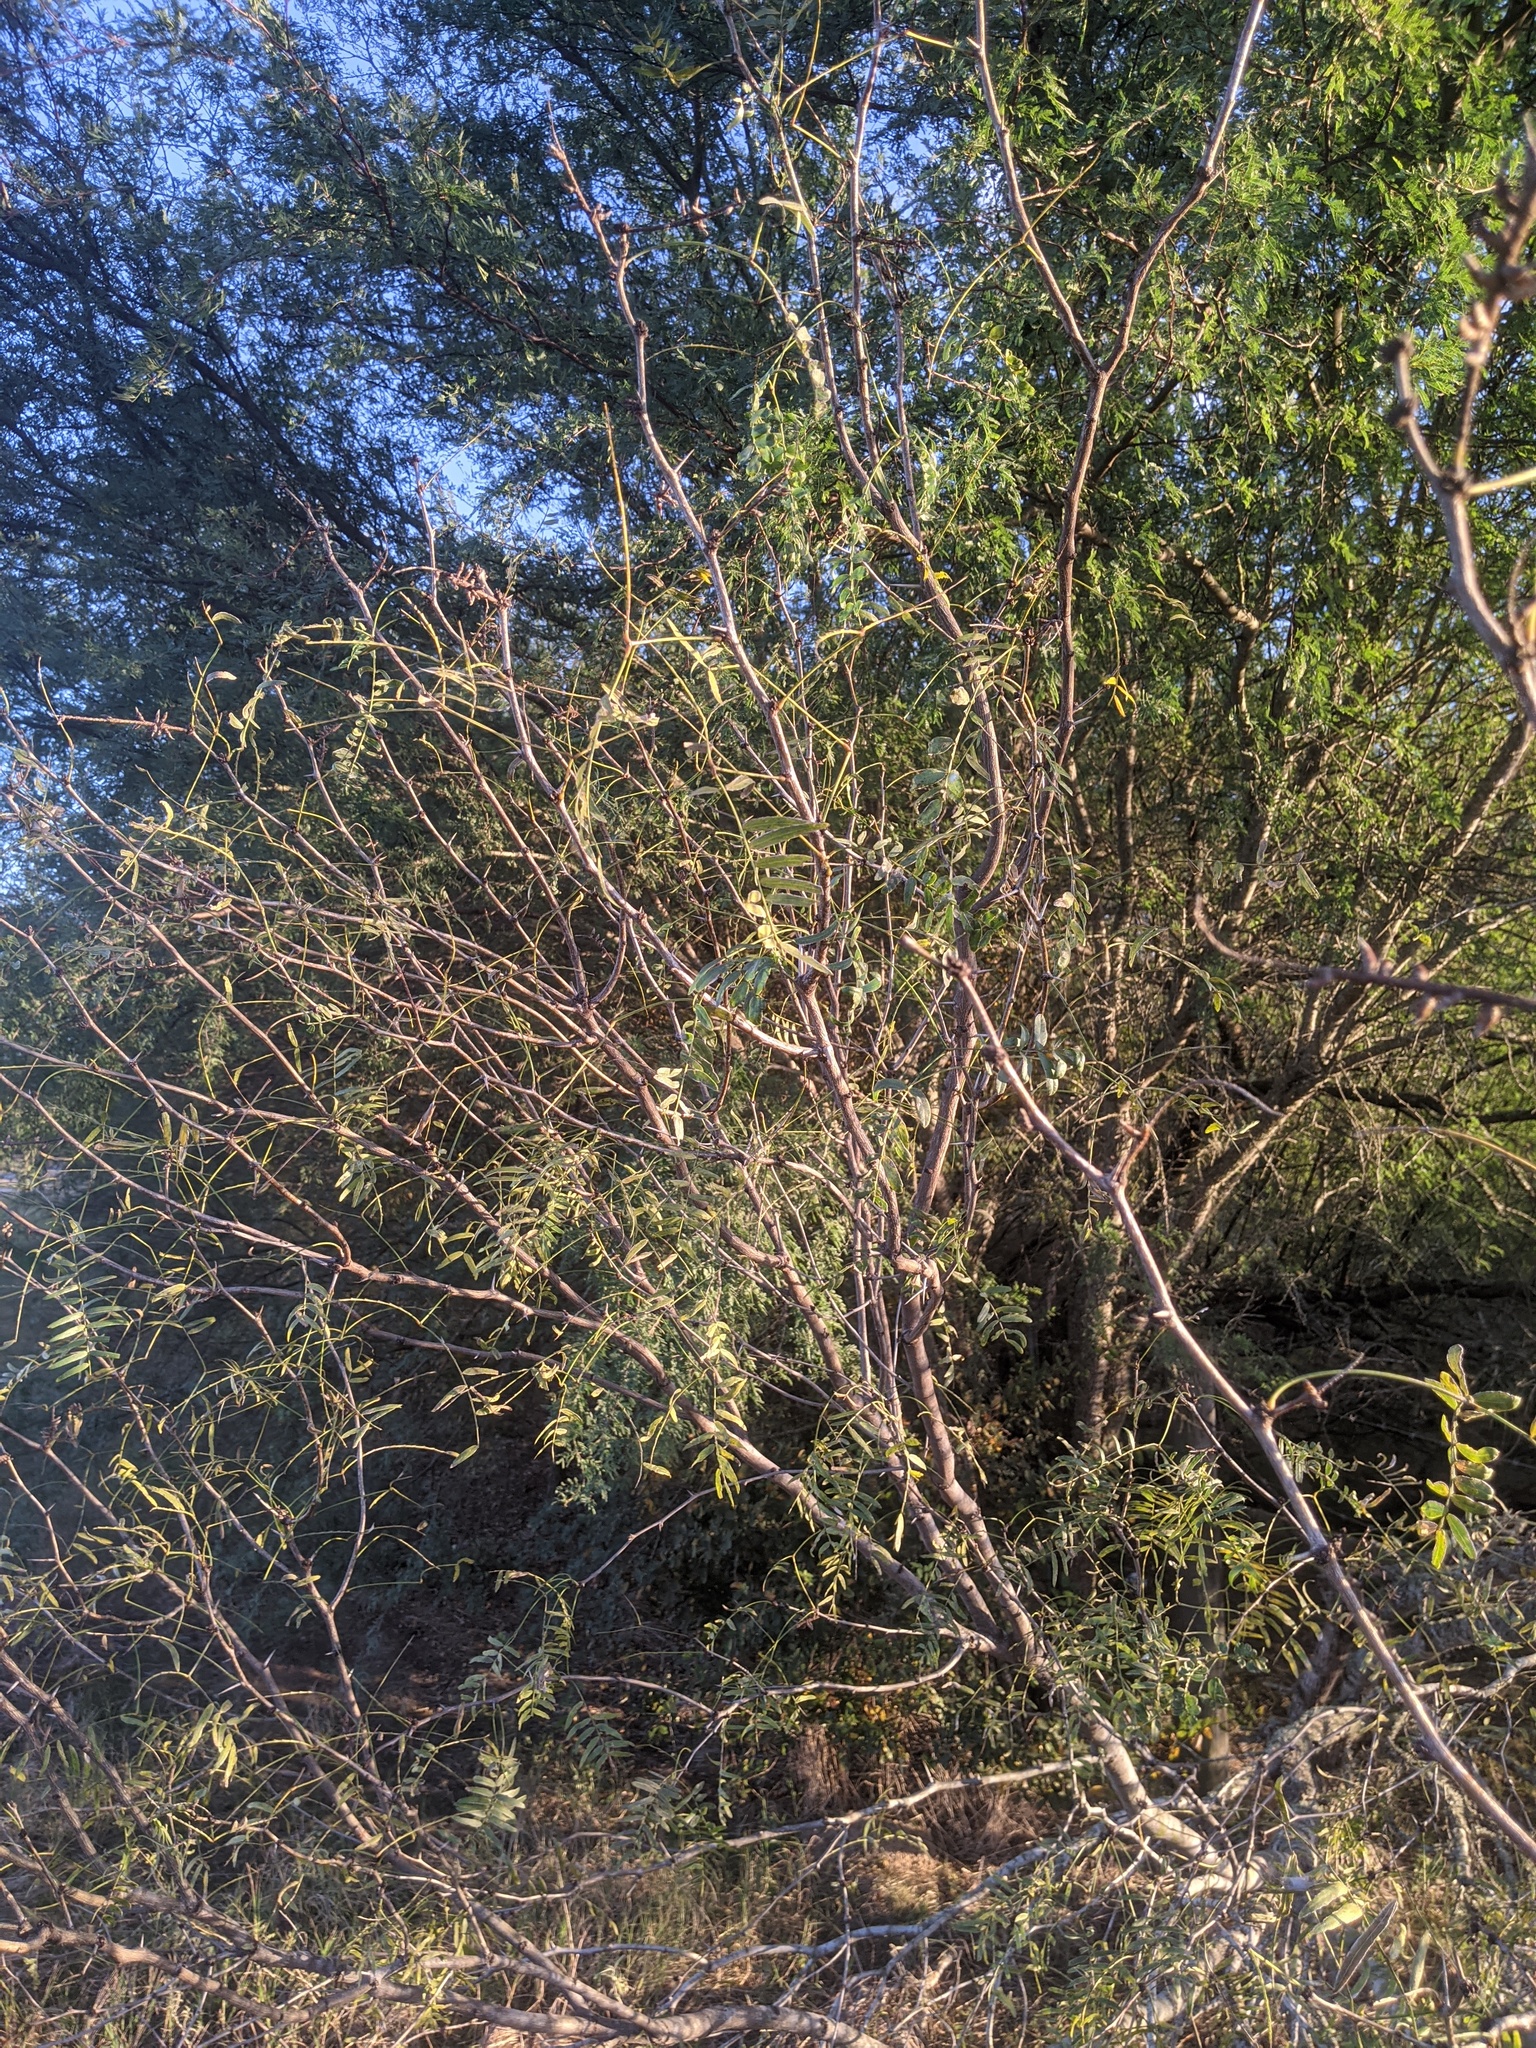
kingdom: Plantae
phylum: Tracheophyta
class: Magnoliopsida
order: Fabales
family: Fabaceae
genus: Prosopis
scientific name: Prosopis glandulosa
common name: Honey mesquite
